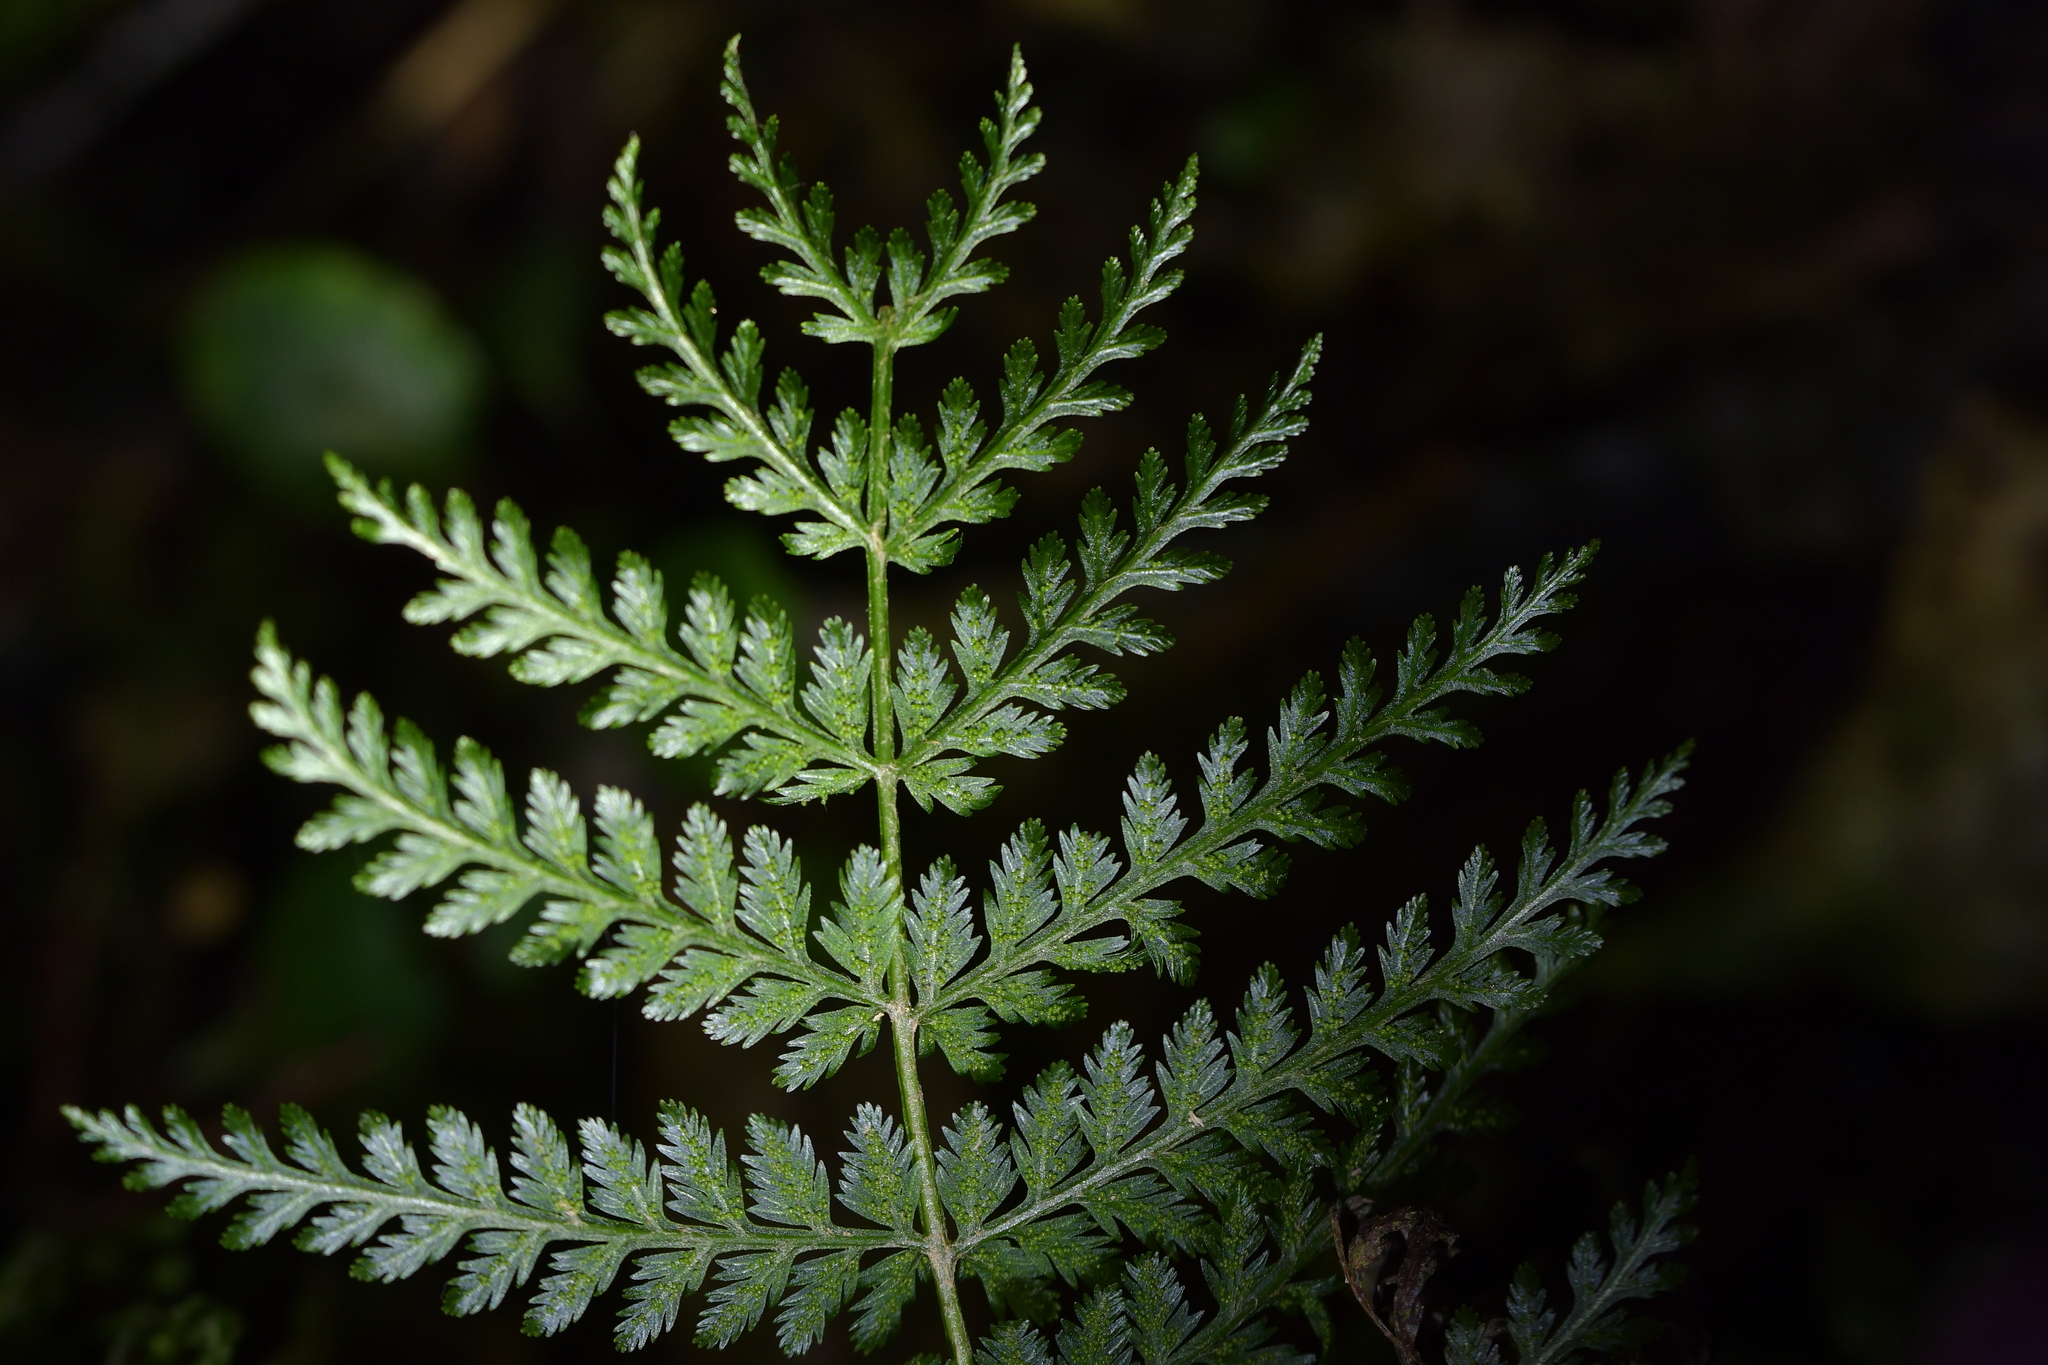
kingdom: Plantae
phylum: Tracheophyta
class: Polypodiopsida
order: Osmundales
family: Osmundaceae
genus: Leptopteris
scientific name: Leptopteris hymenophylloides
